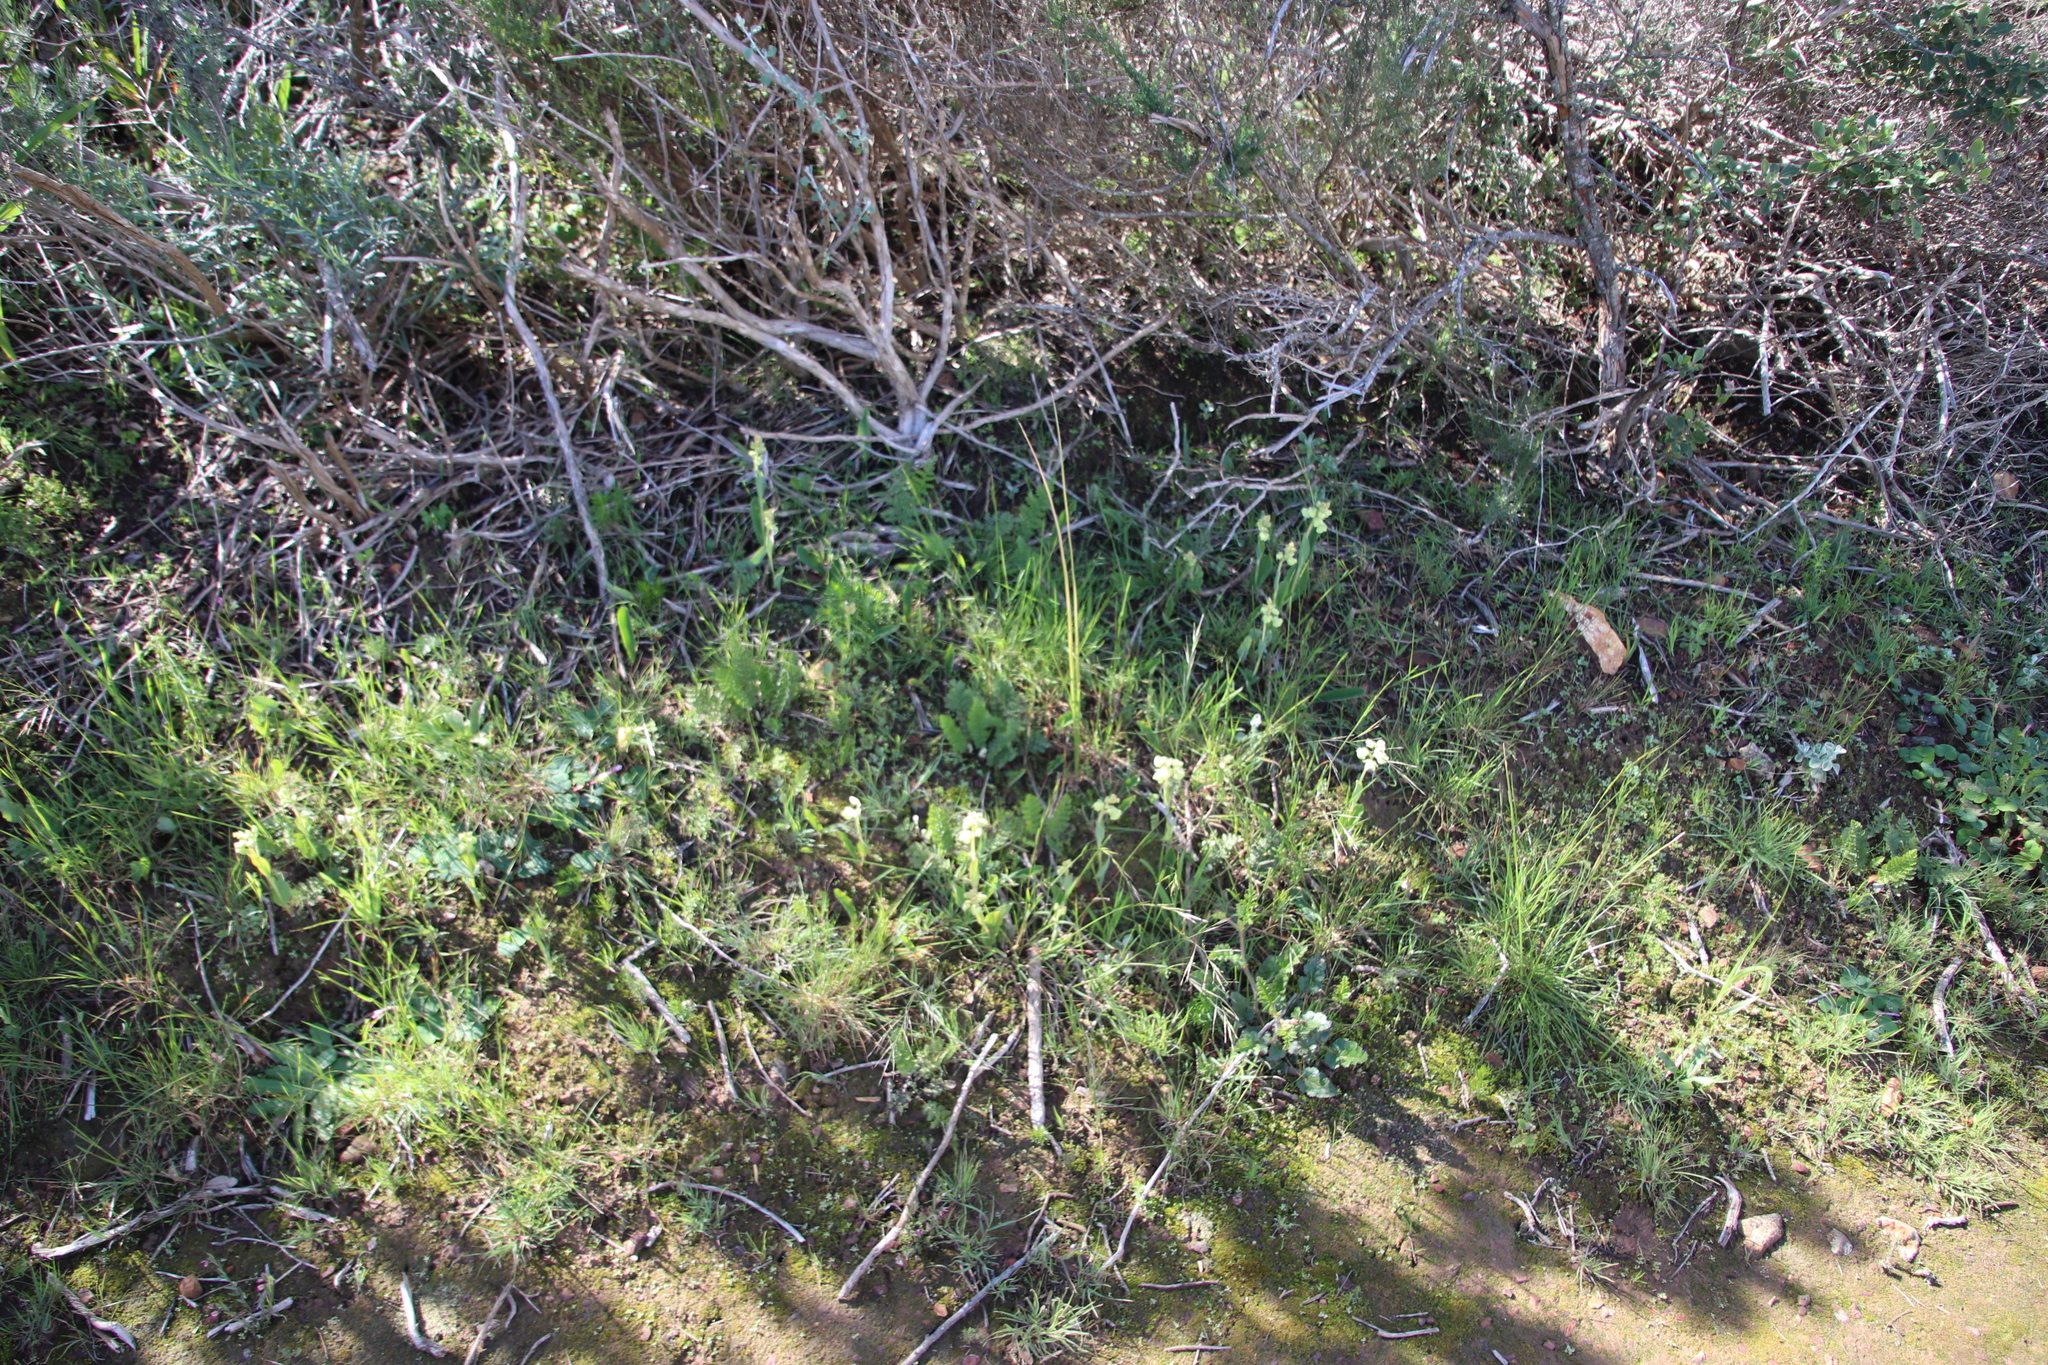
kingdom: Plantae
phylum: Tracheophyta
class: Liliopsida
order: Asparagales
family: Orchidaceae
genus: Pterygodium
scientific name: Pterygodium catholicum
